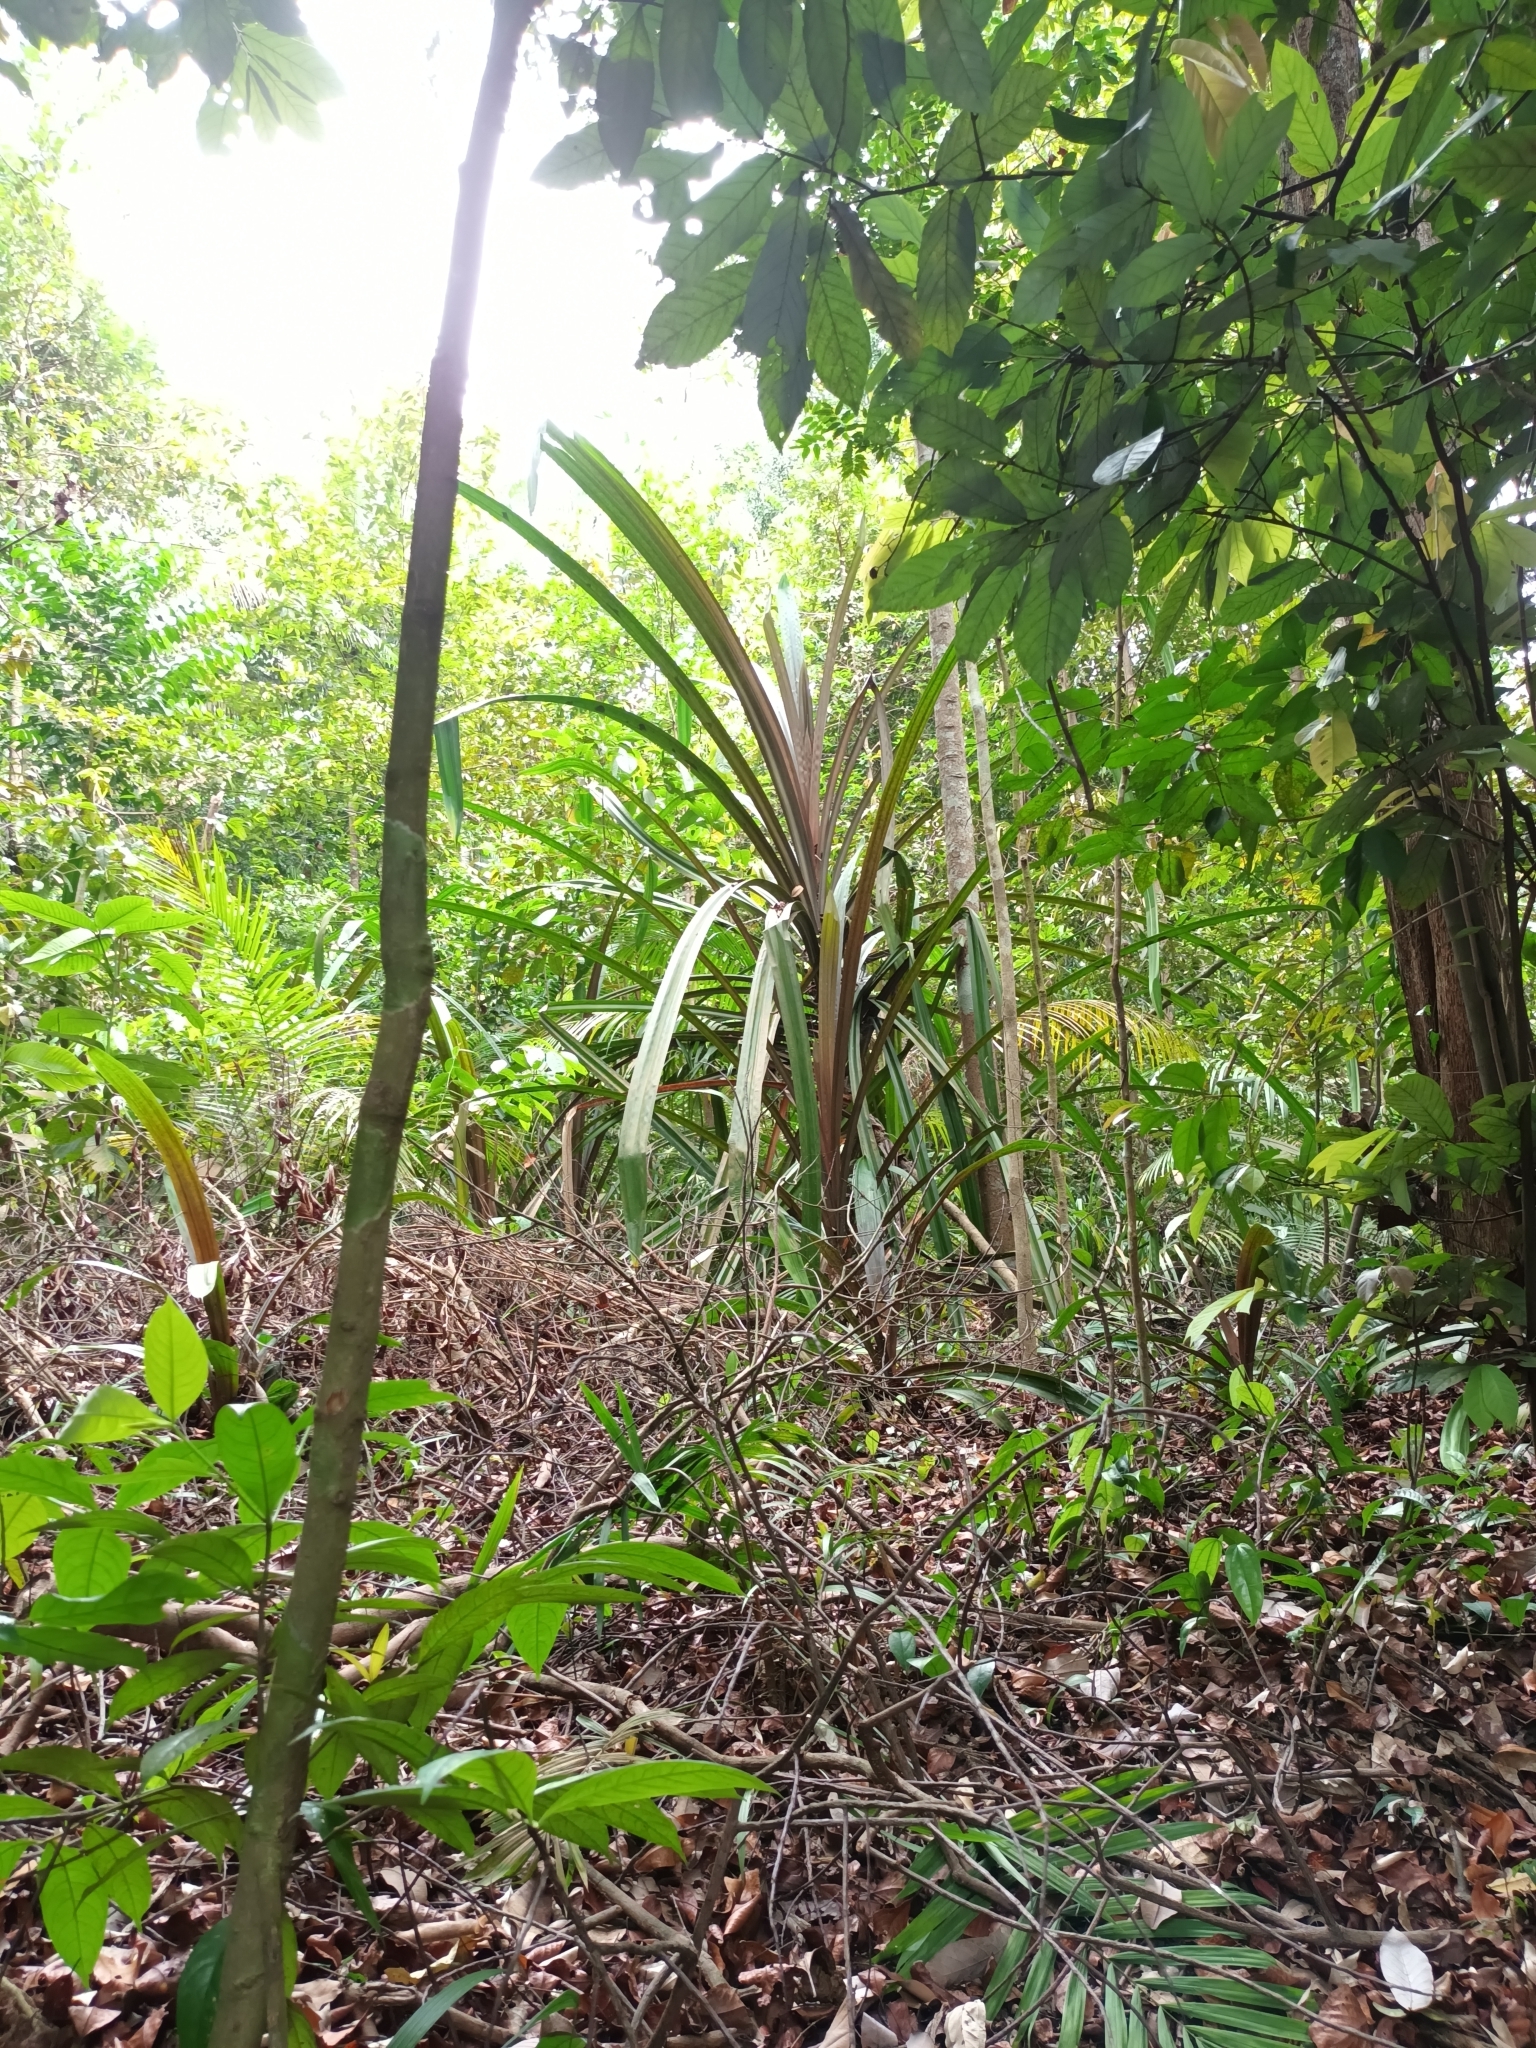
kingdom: Plantae
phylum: Tracheophyta
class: Liliopsida
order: Pandanales
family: Pandanaceae
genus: Pandanus
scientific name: Pandanus houlletii
